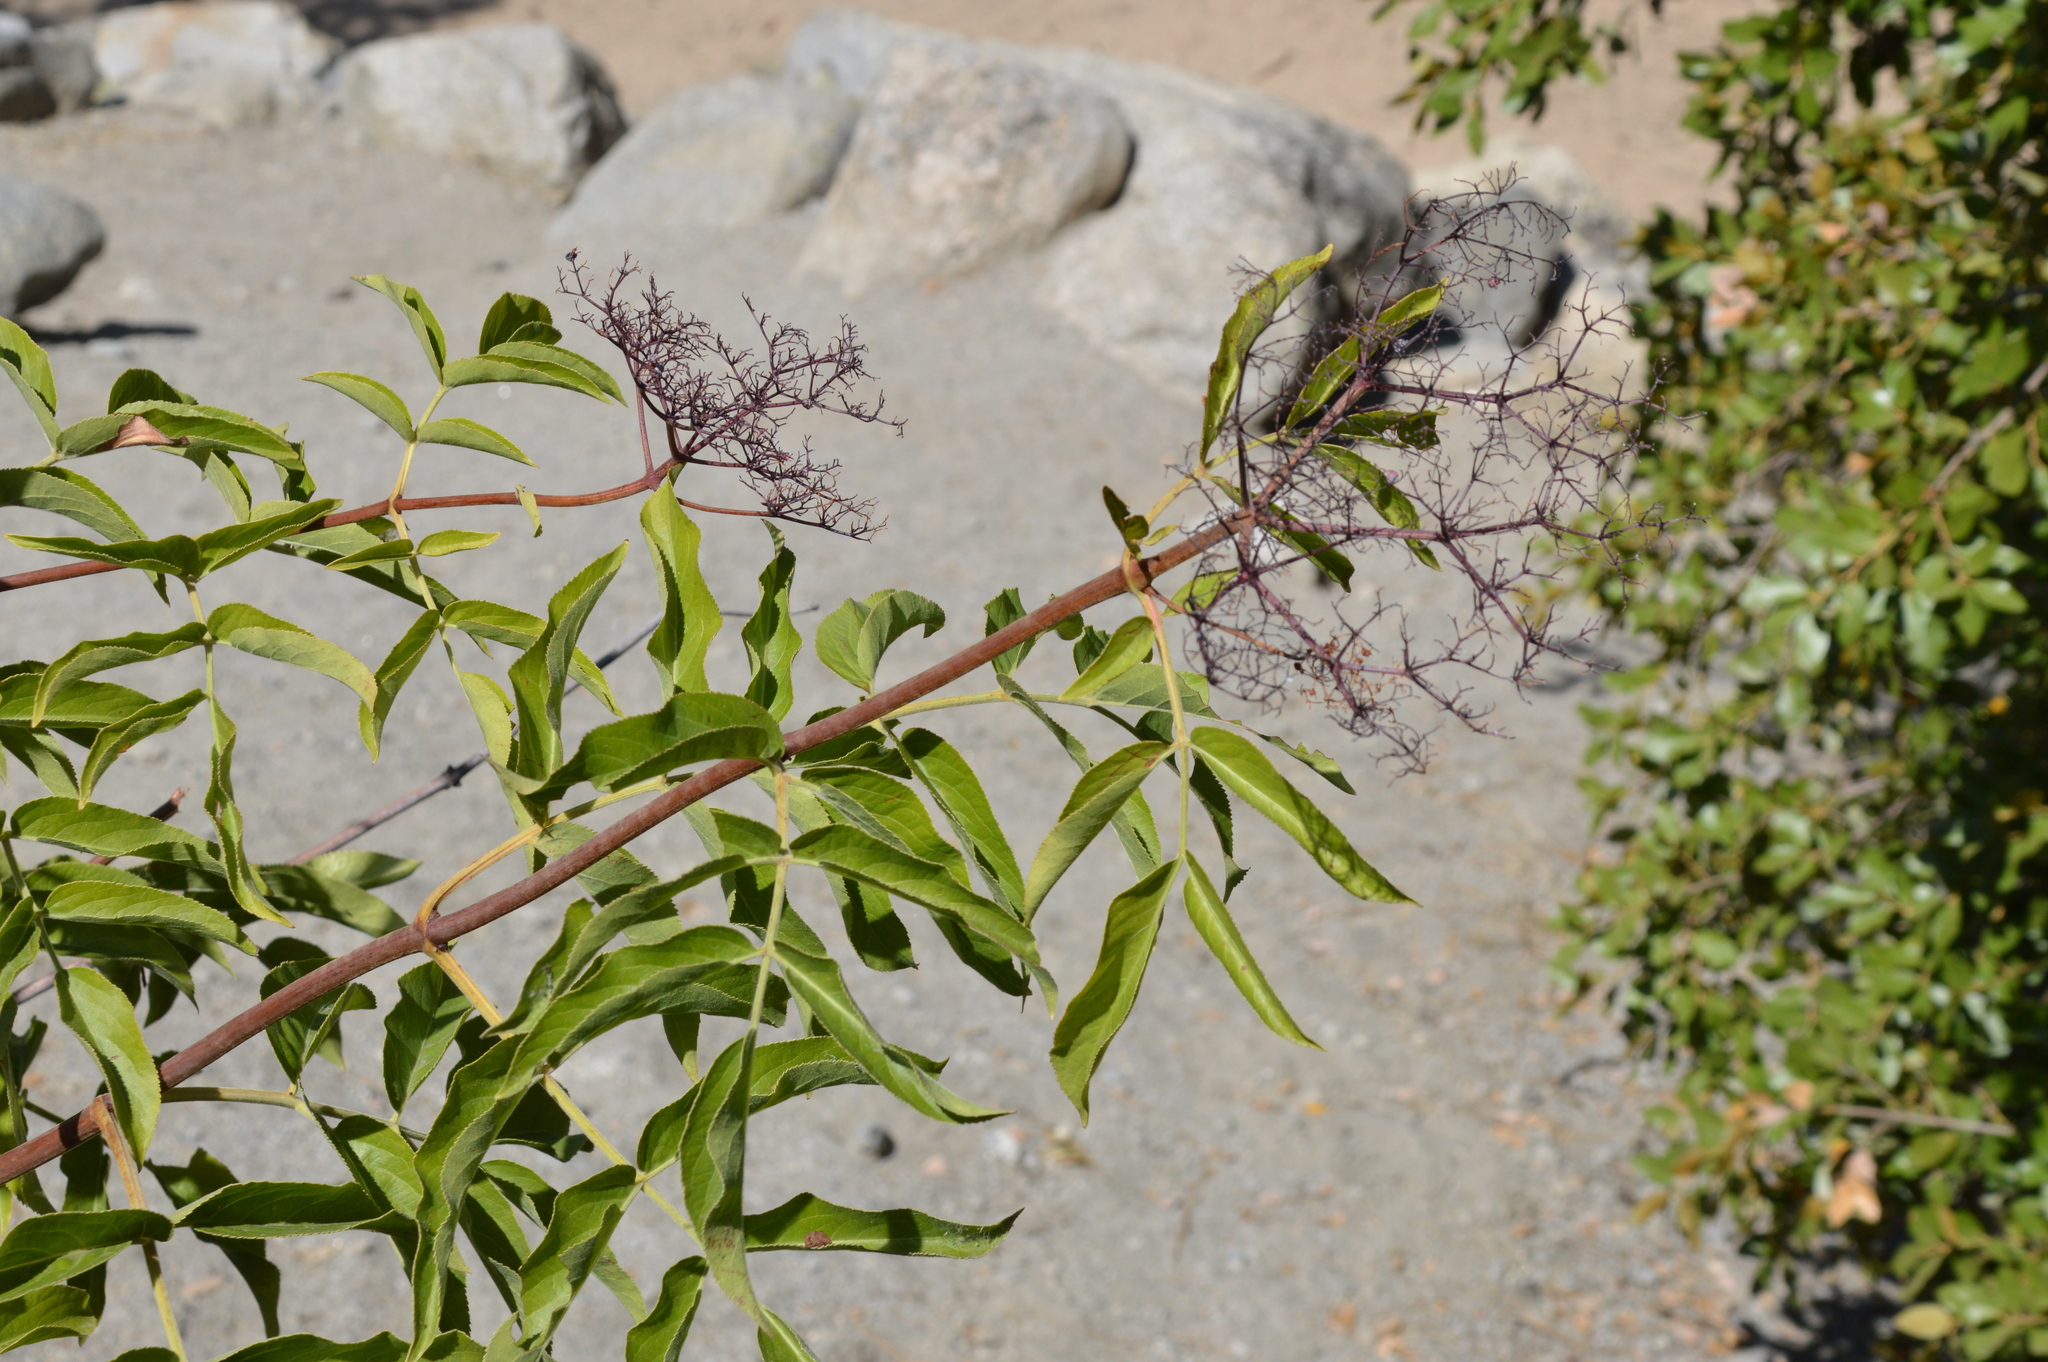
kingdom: Plantae
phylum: Tracheophyta
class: Magnoliopsida
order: Dipsacales
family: Viburnaceae
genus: Sambucus
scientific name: Sambucus cerulea
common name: Blue elder
